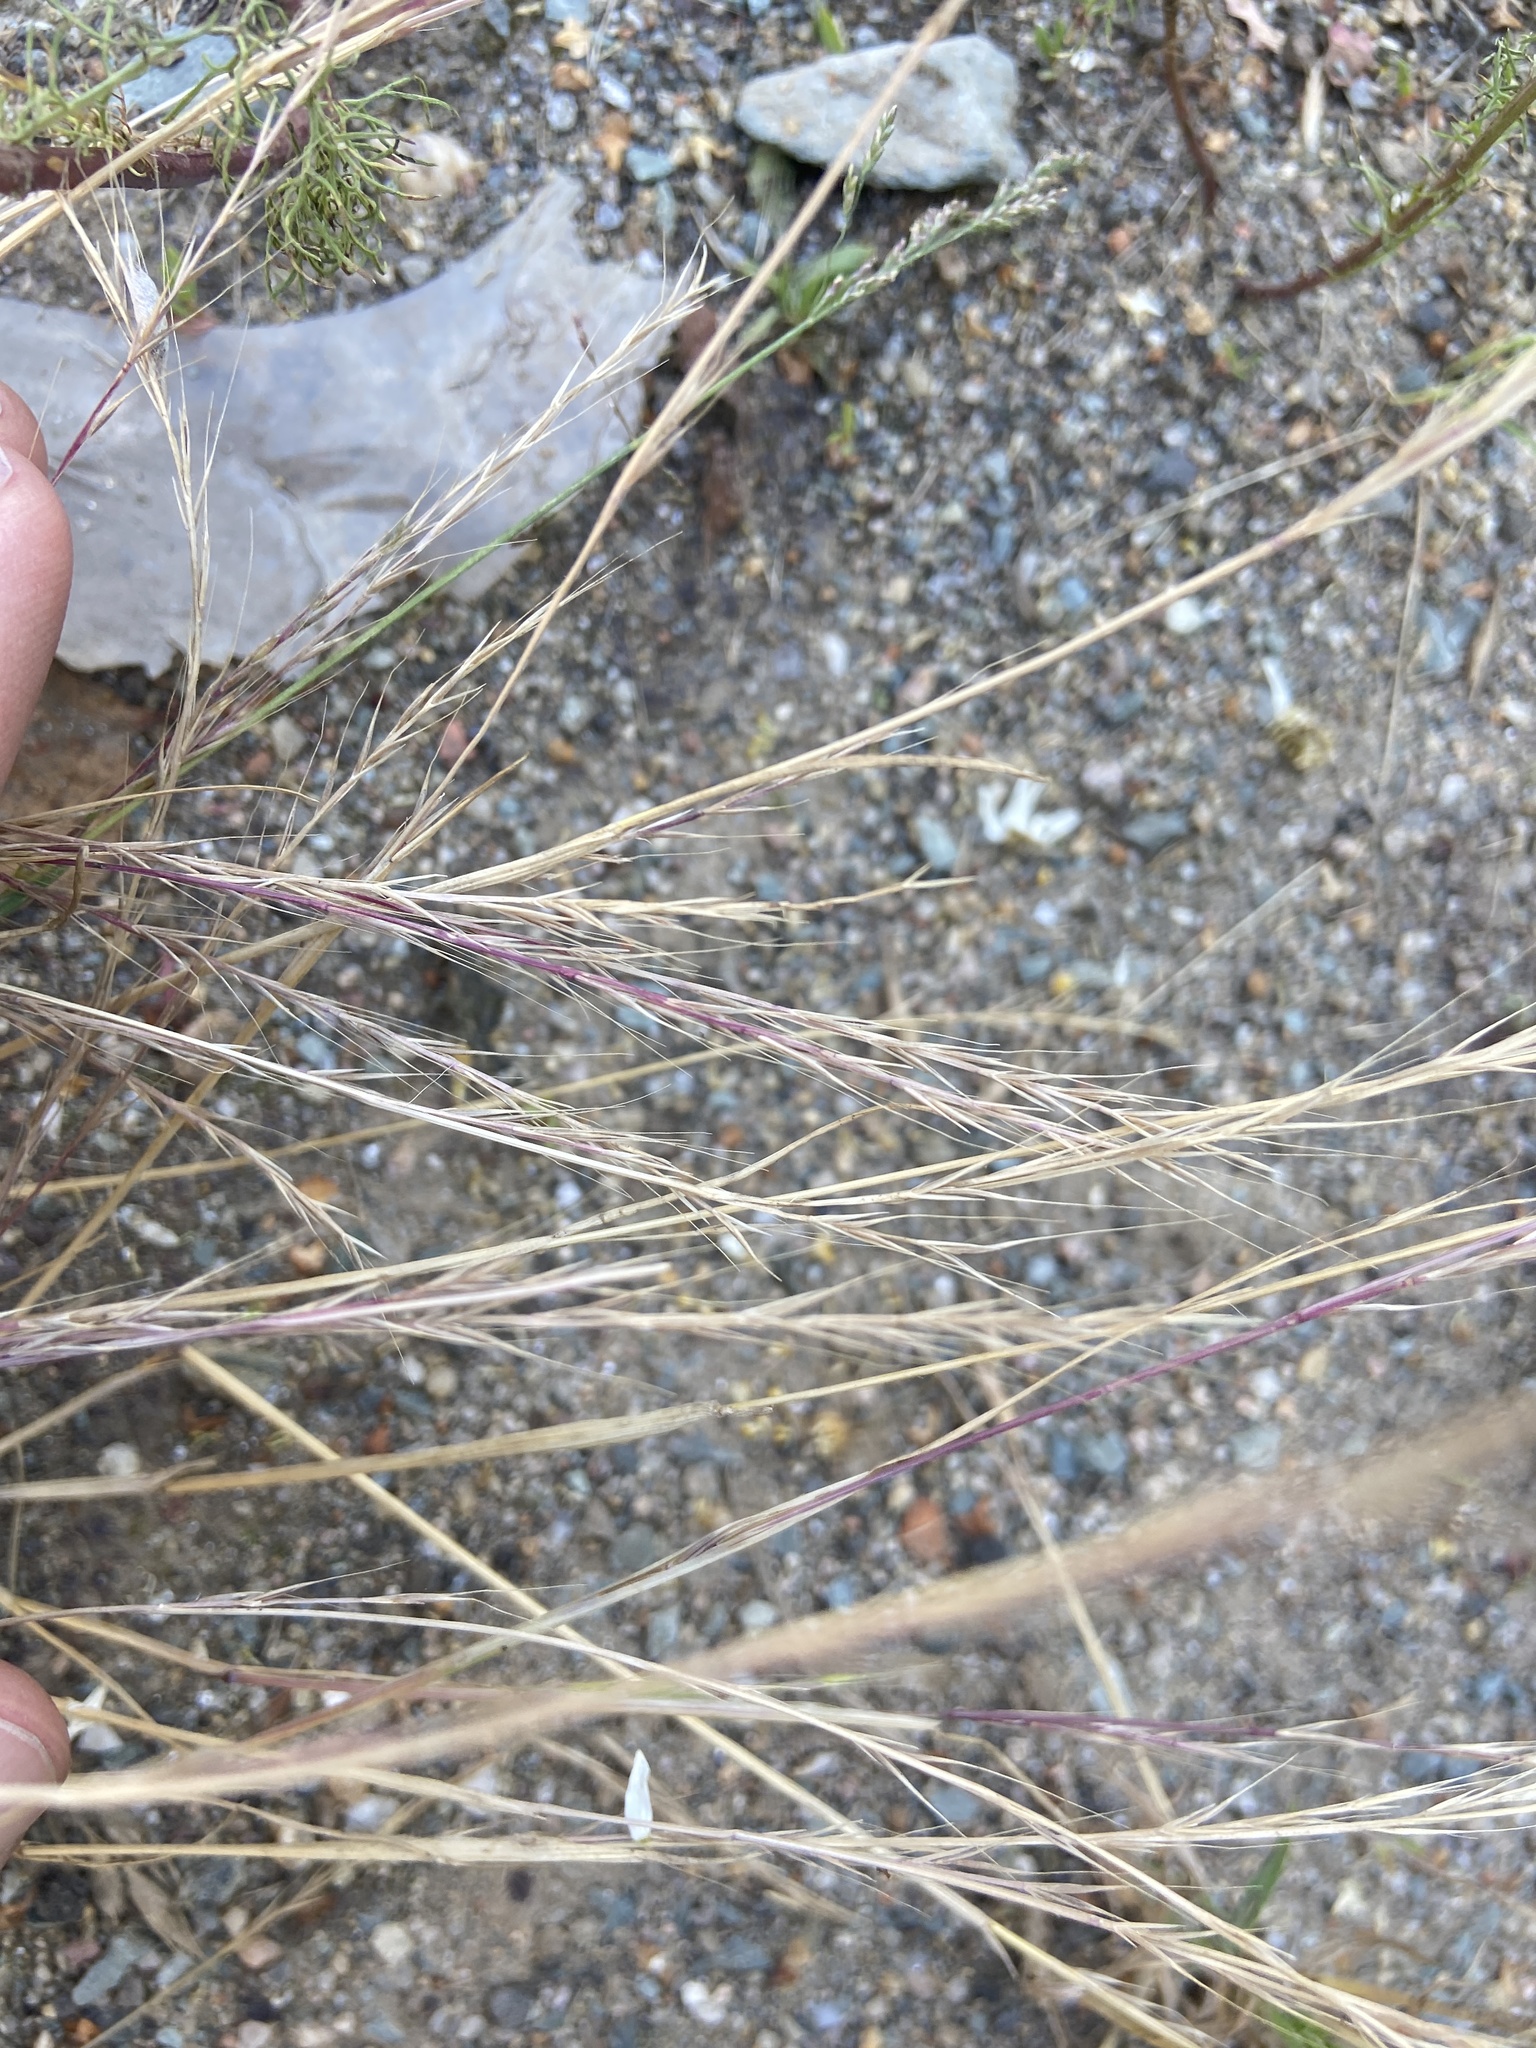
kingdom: Plantae
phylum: Tracheophyta
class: Liliopsida
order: Poales
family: Poaceae
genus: Festuca
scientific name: Festuca myuros
